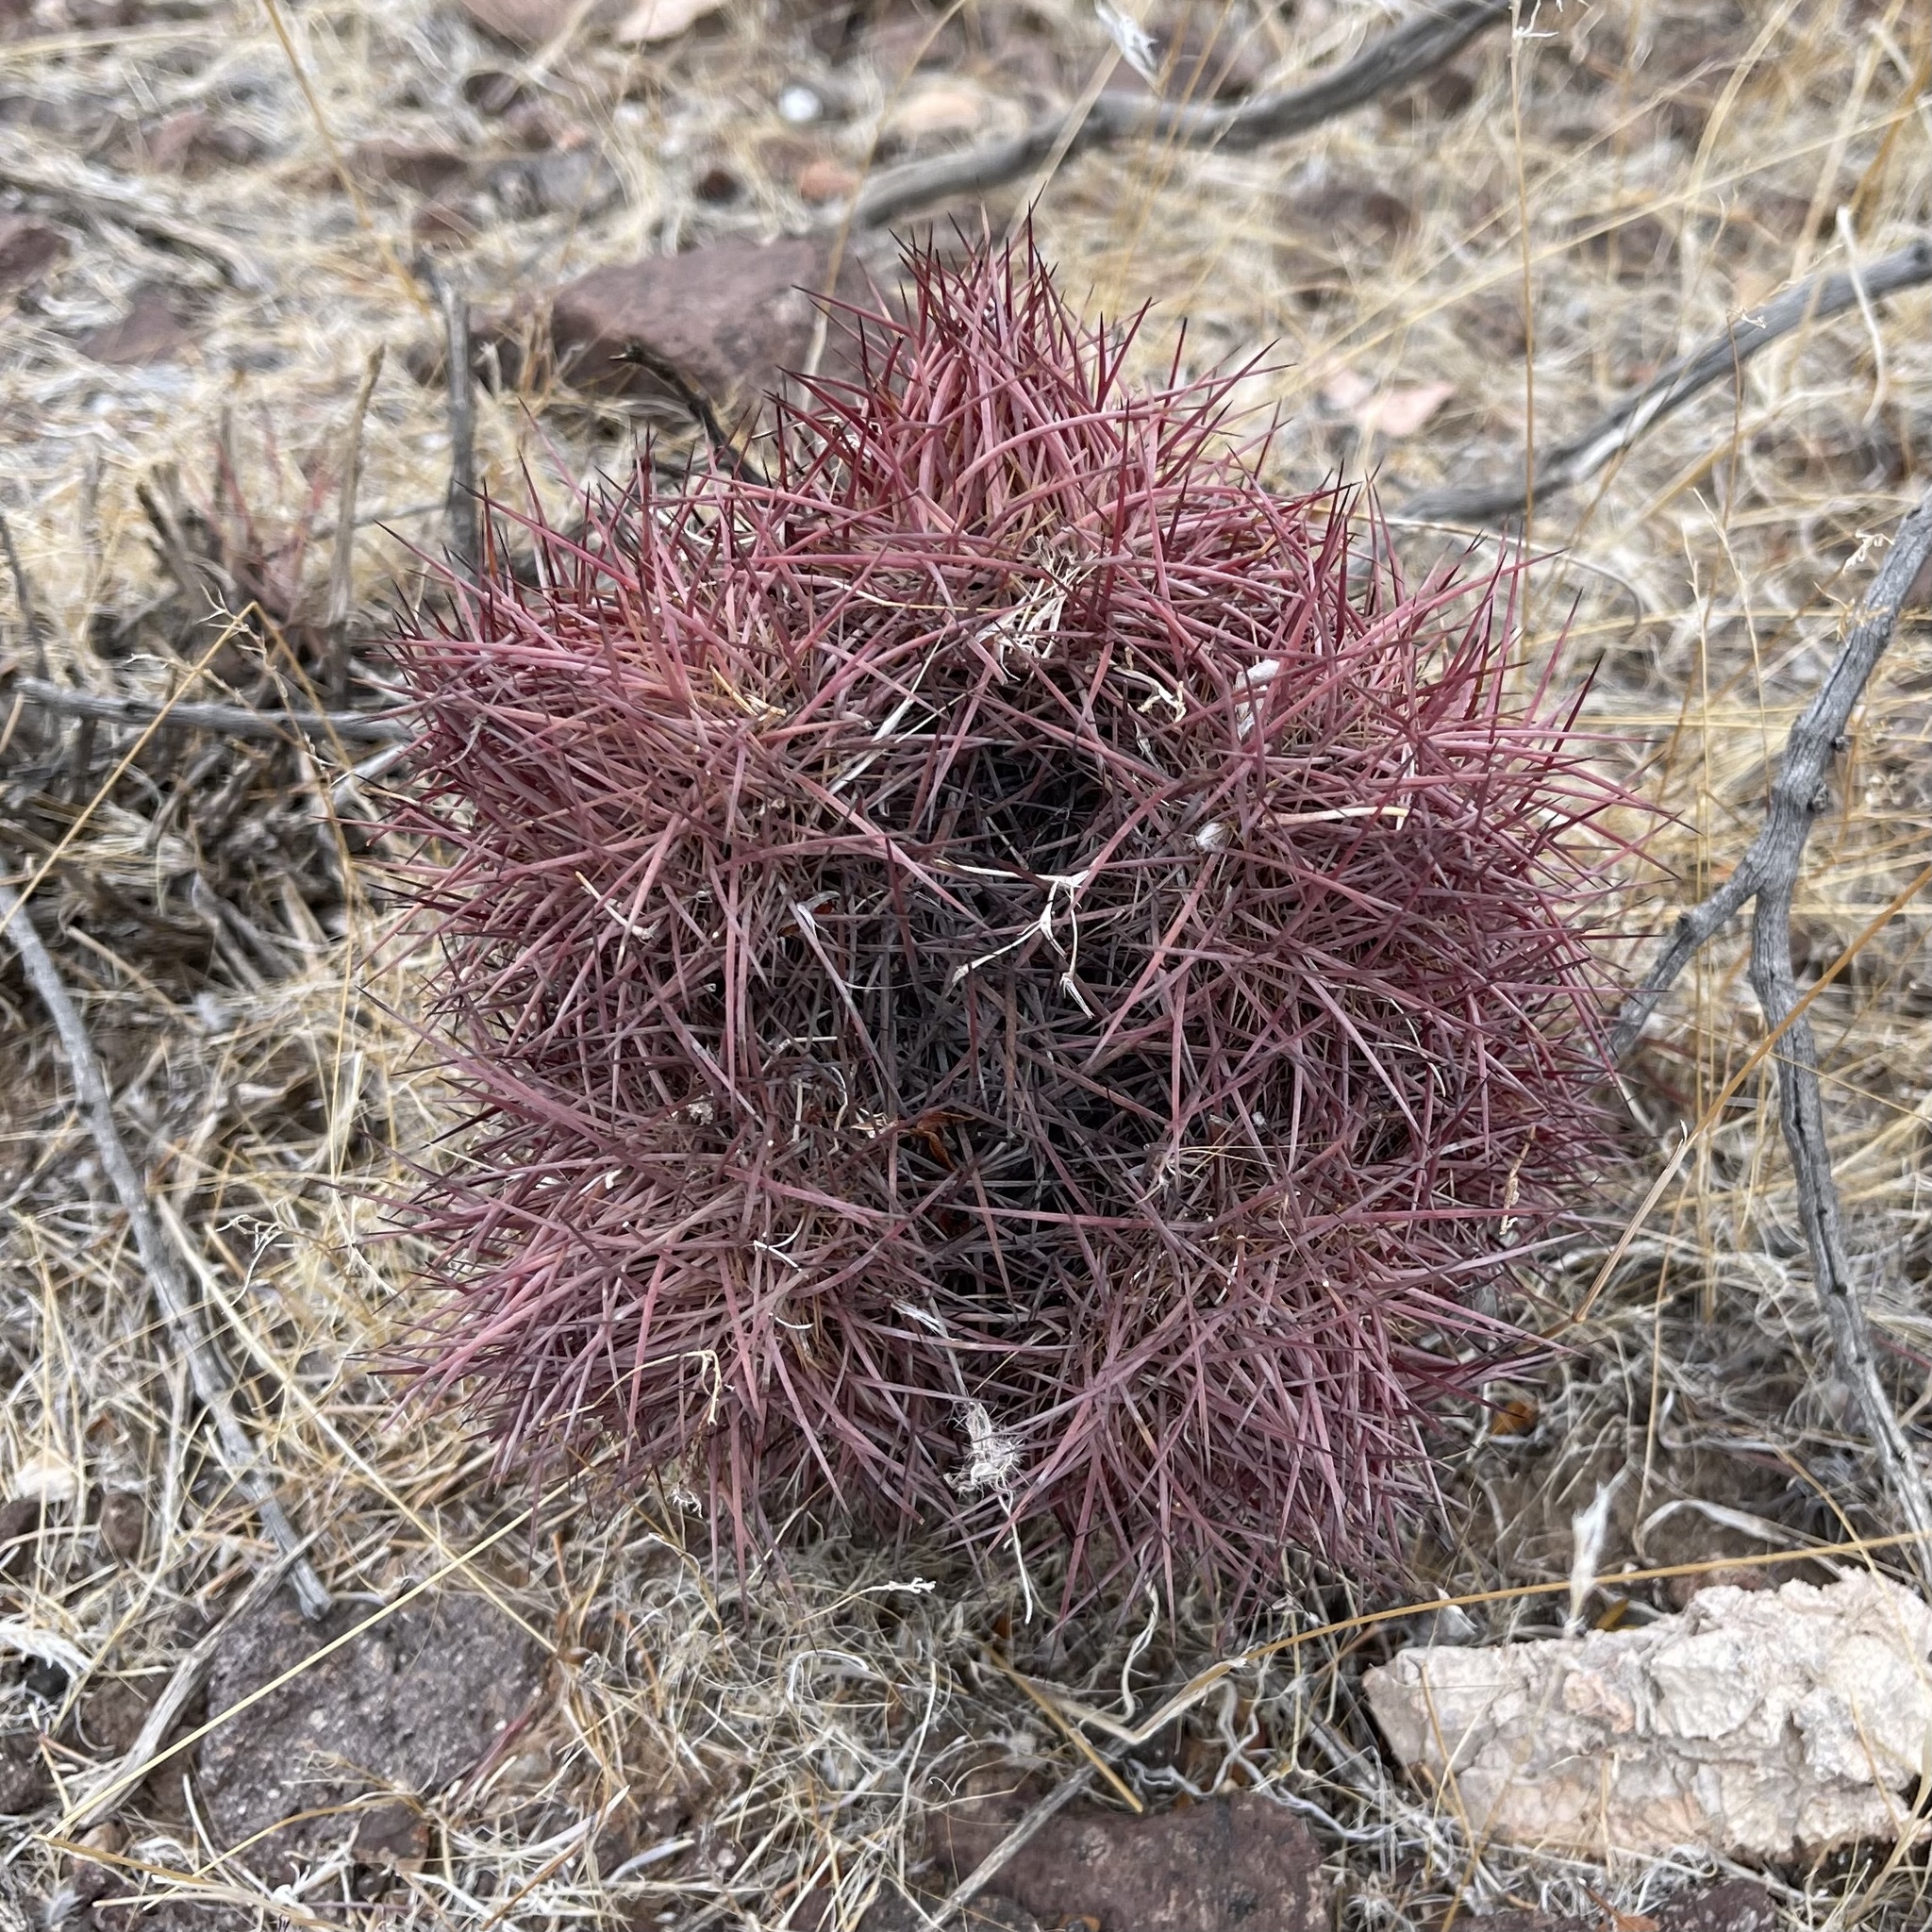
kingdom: Plantae
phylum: Tracheophyta
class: Magnoliopsida
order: Caryophyllales
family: Cactaceae
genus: Sclerocactus
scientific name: Sclerocactus johnsonii
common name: Eight-spine fishhook cactus
